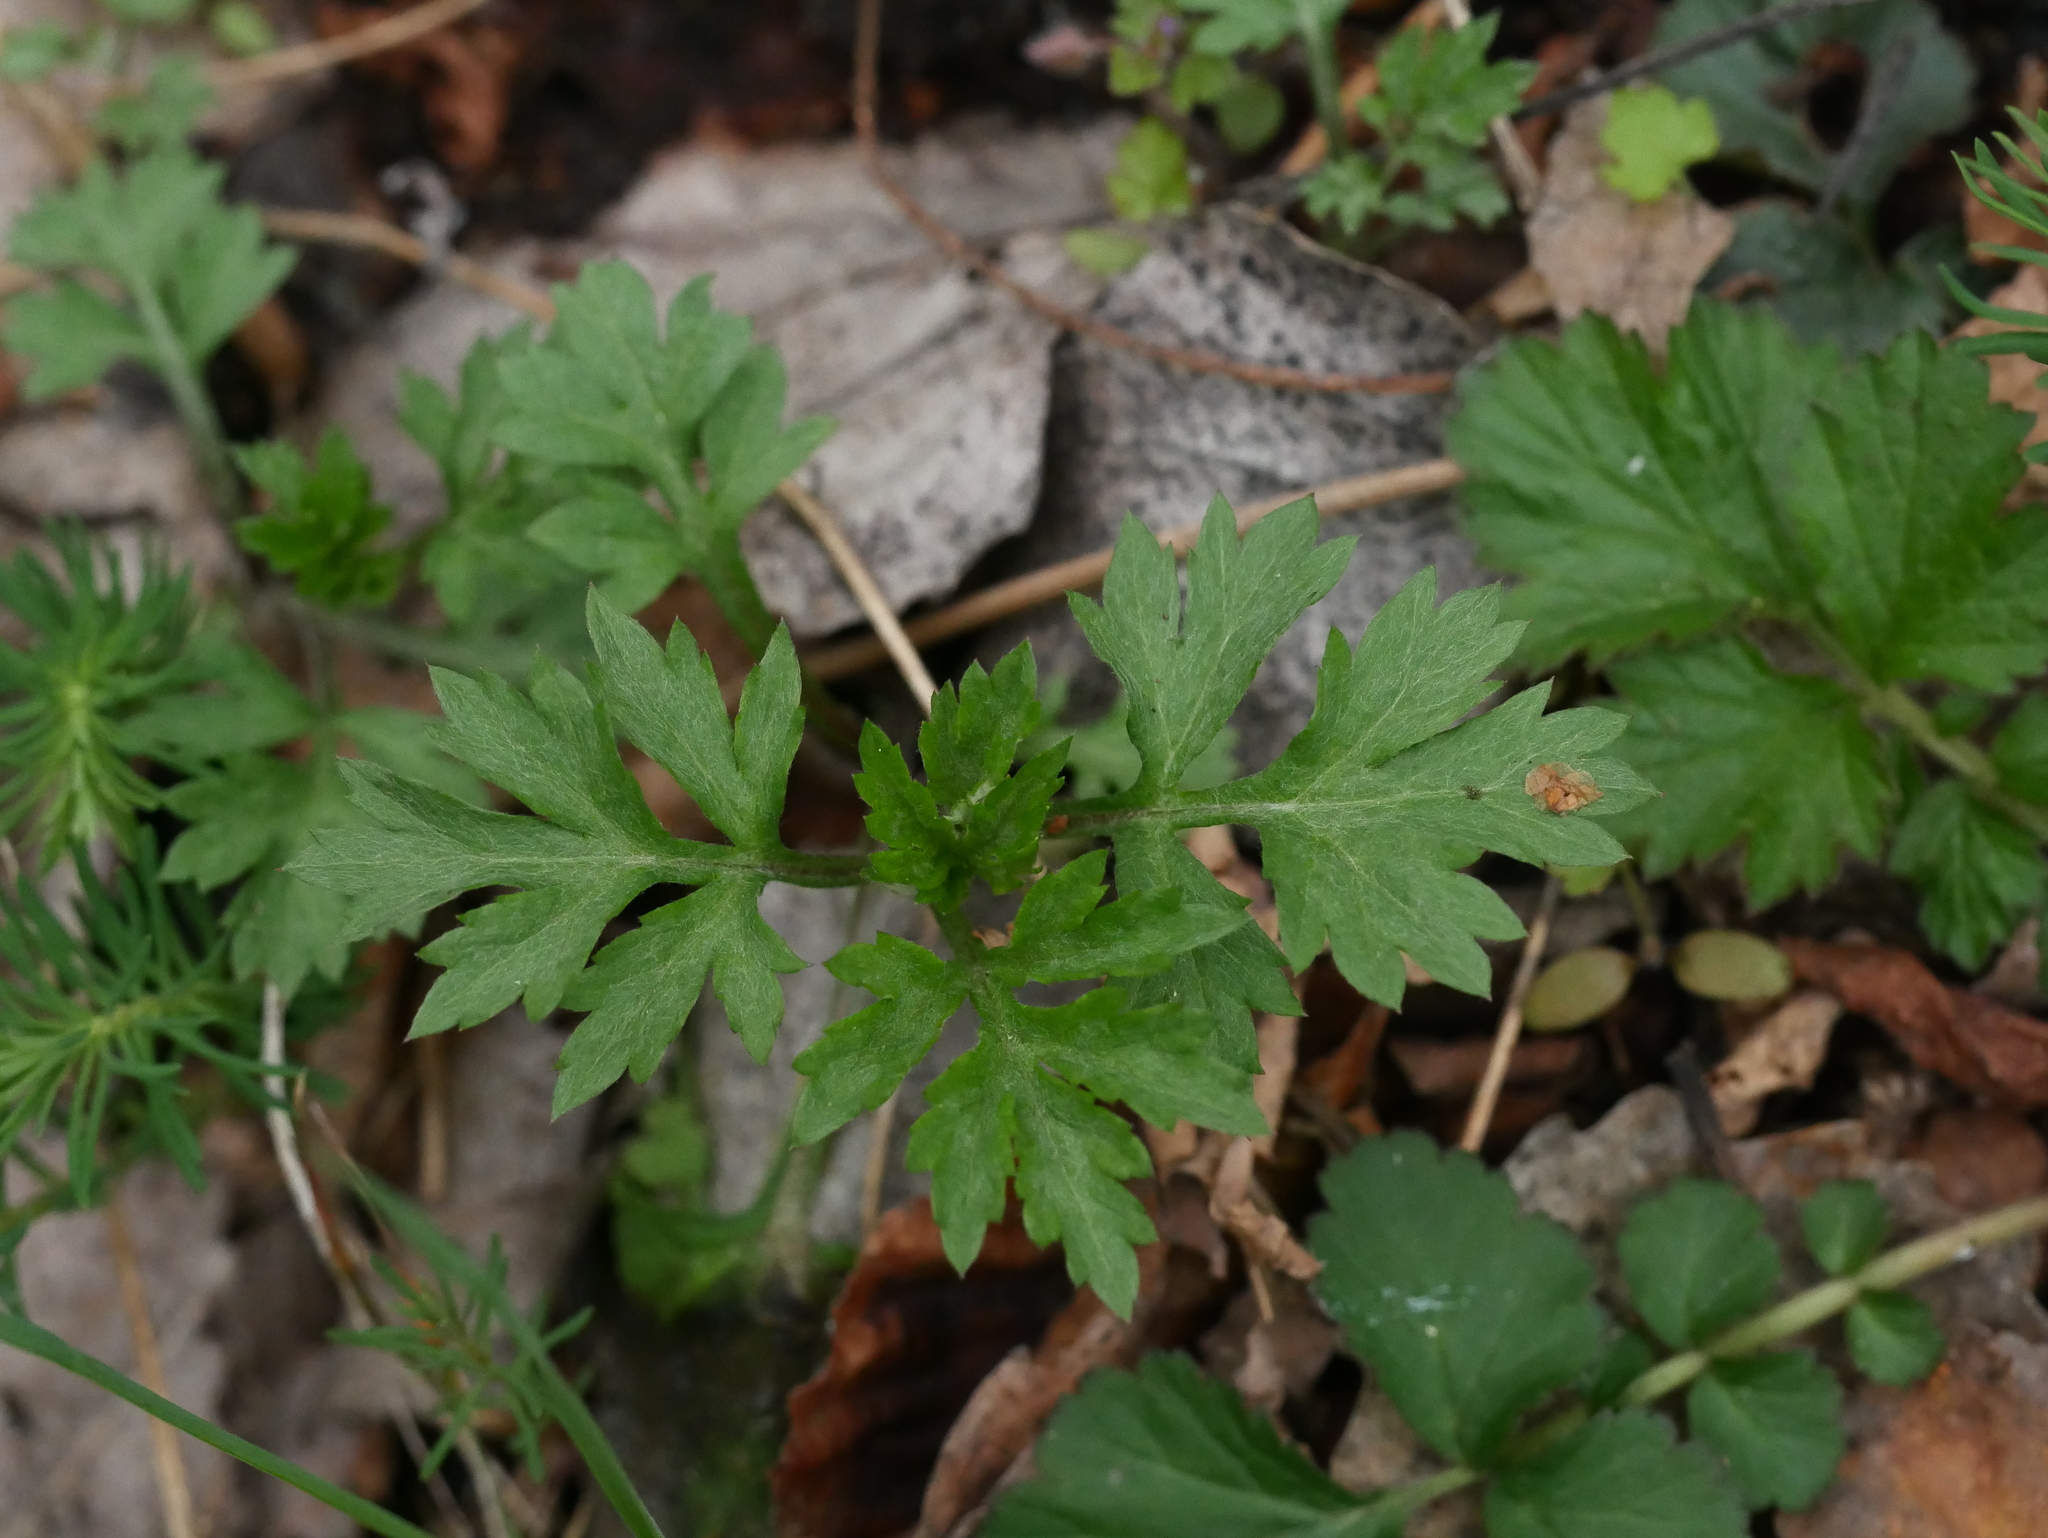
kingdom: Plantae
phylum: Tracheophyta
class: Magnoliopsida
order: Asterales
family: Asteraceae
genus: Artemisia
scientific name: Artemisia vulgaris
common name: Mugwort
